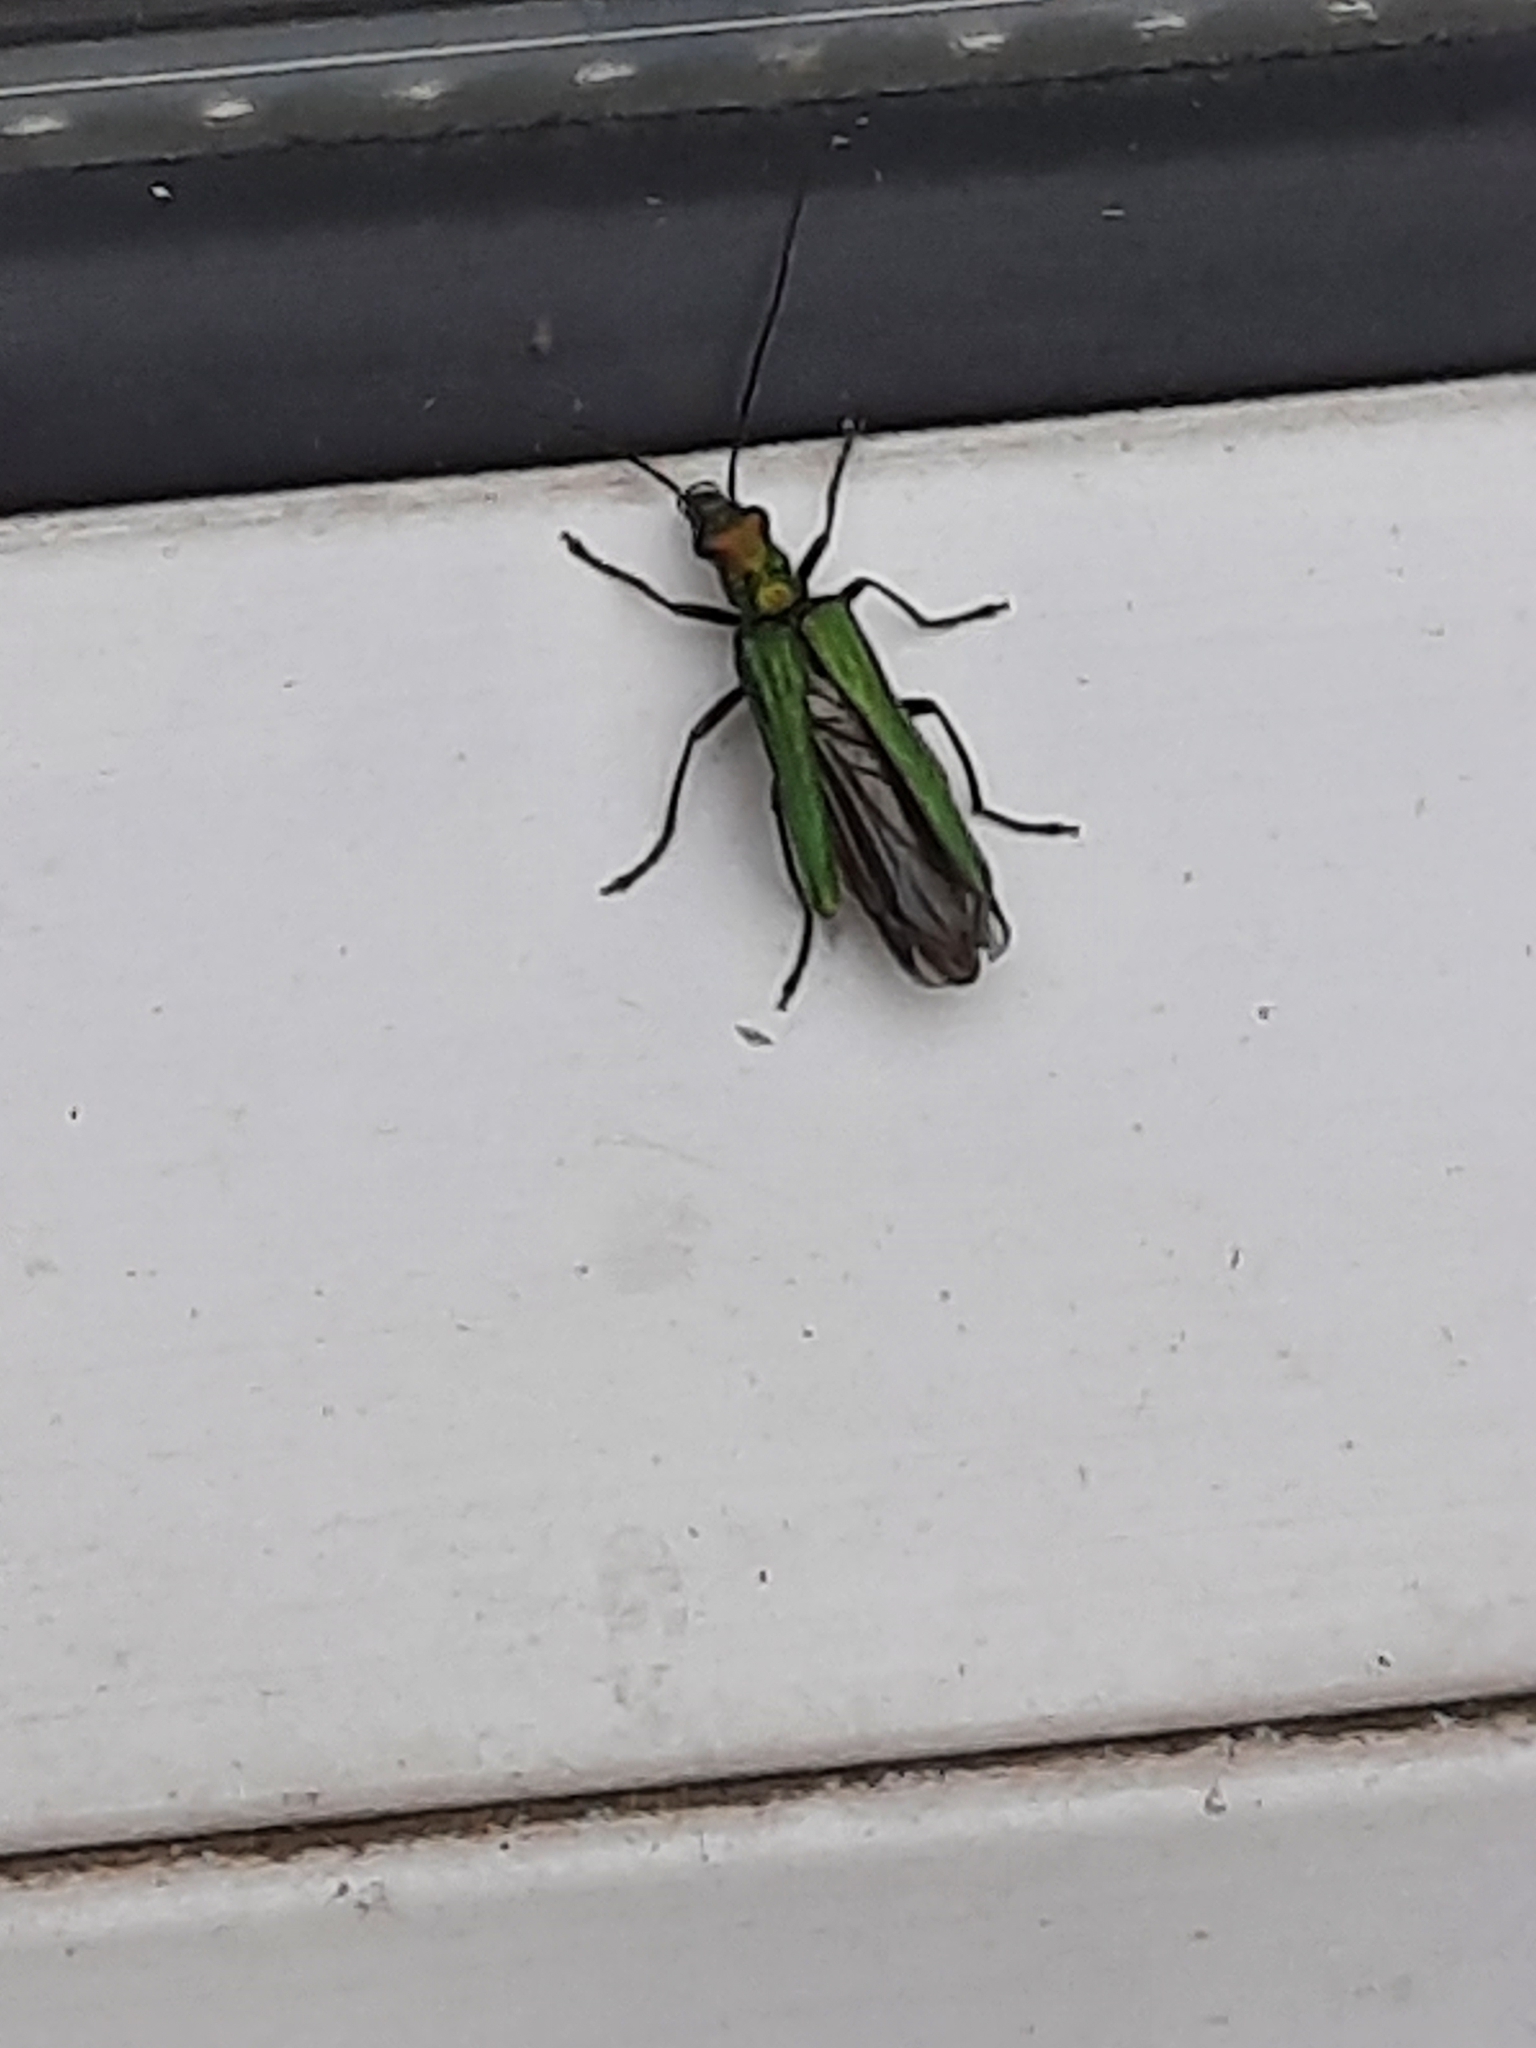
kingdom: Animalia
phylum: Arthropoda
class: Insecta
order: Coleoptera
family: Oedemeridae
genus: Oedemera
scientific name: Oedemera nobilis
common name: Swollen-thighed beetle
